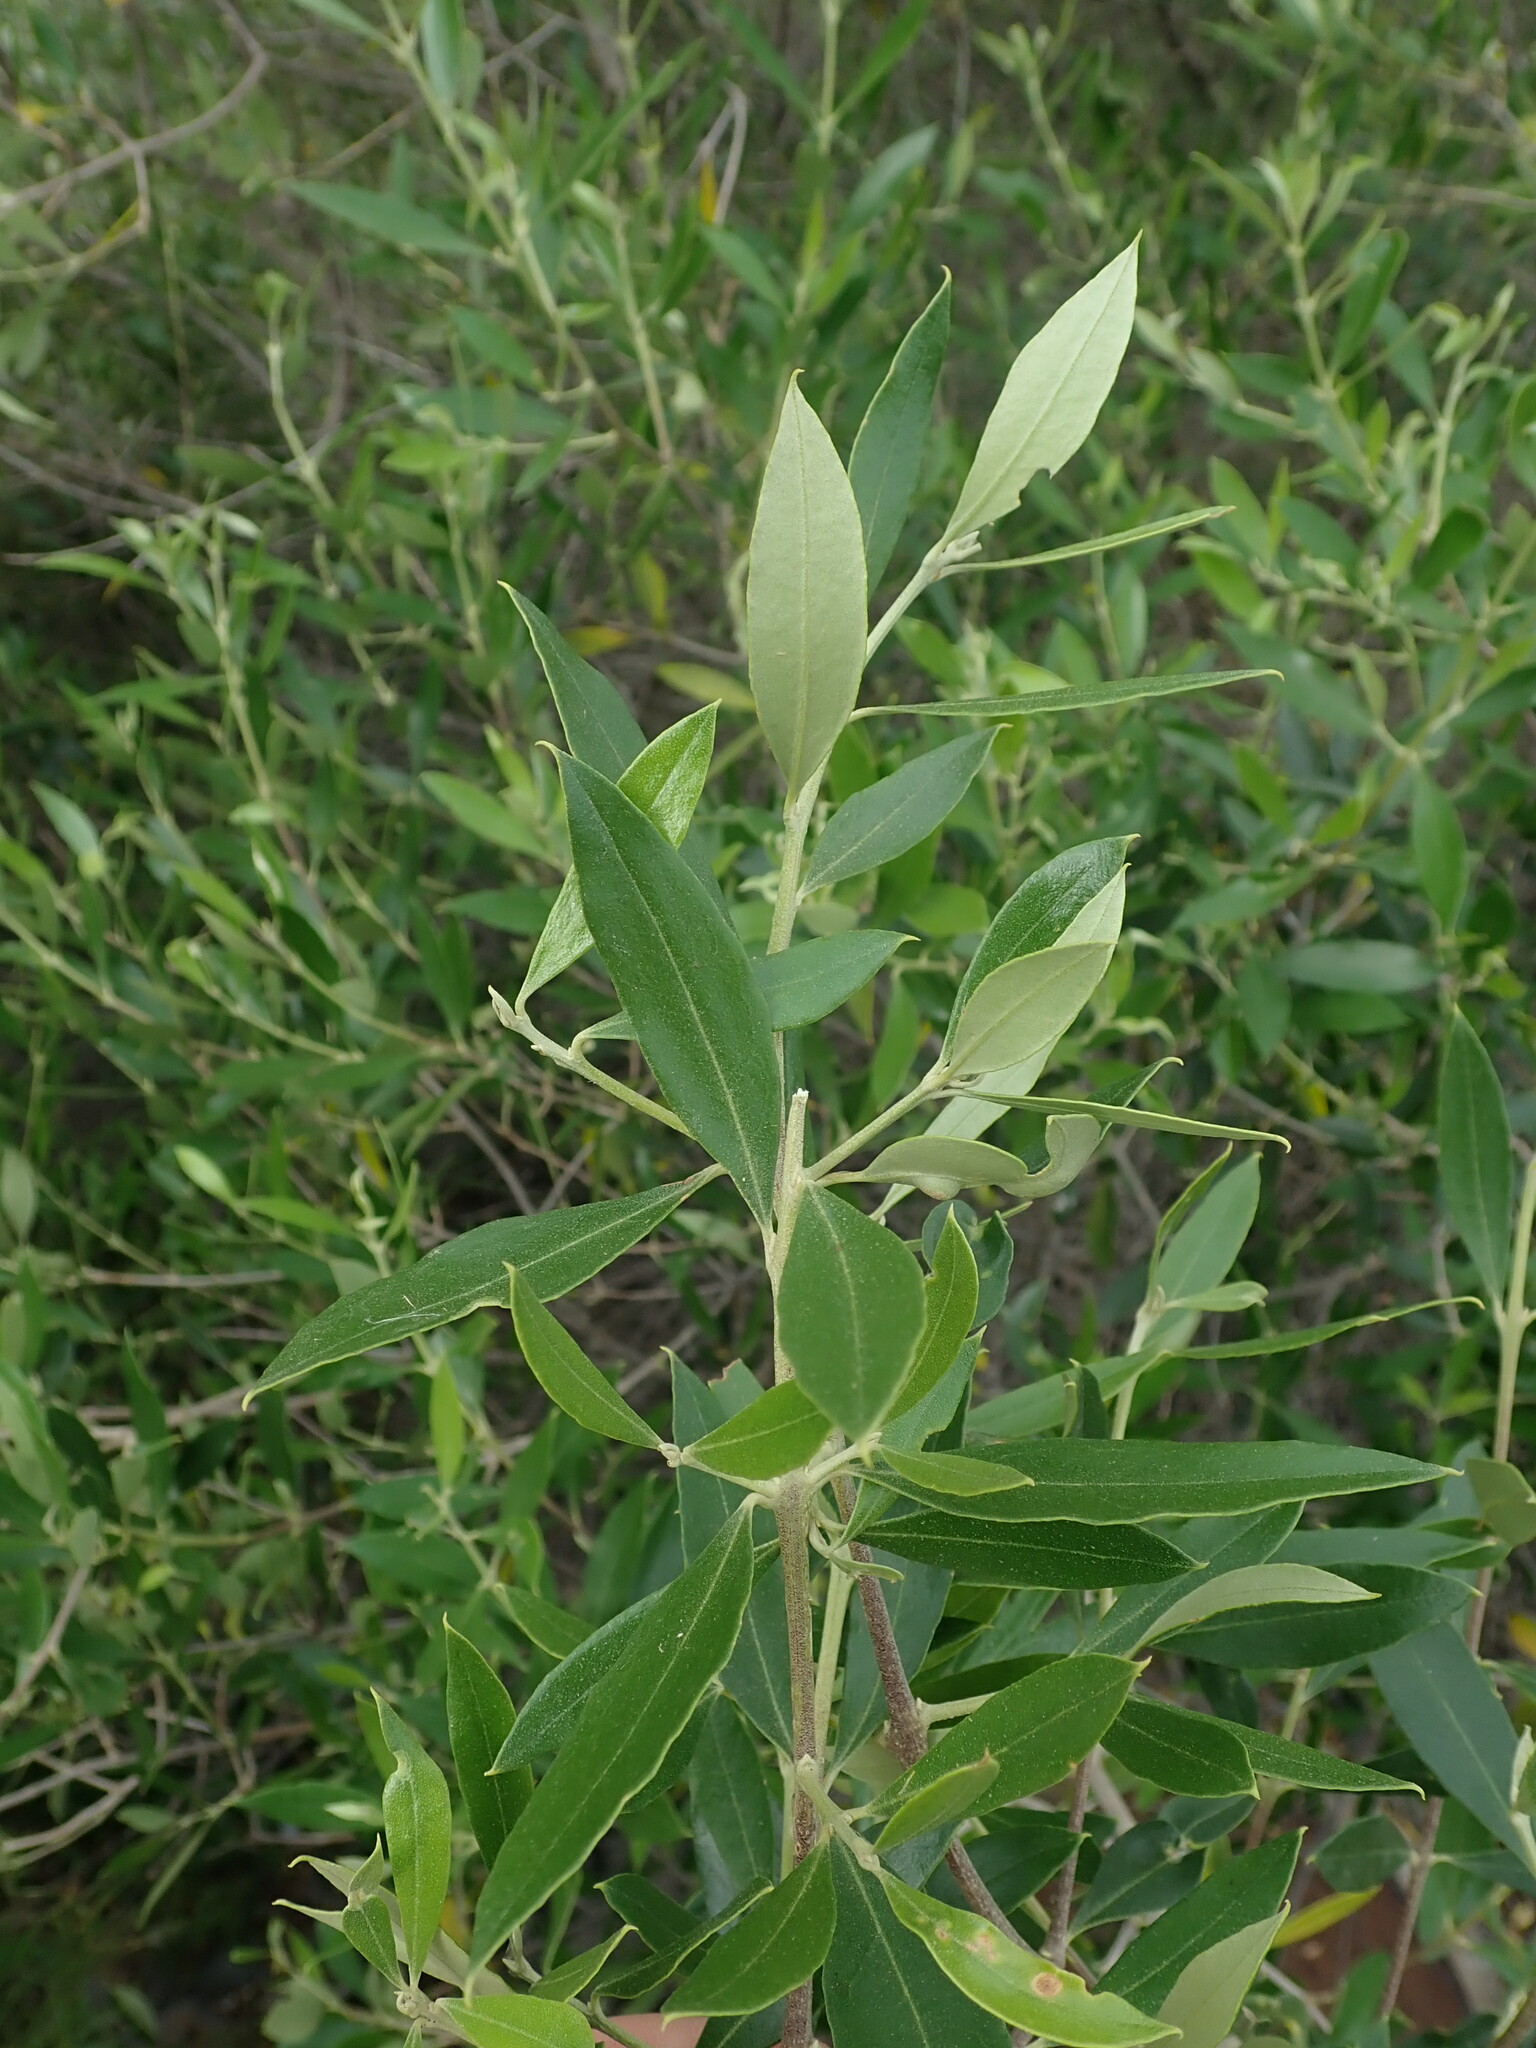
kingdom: Plantae
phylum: Tracheophyta
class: Magnoliopsida
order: Lamiales
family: Oleaceae
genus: Olea
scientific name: Olea europaea
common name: Olive
